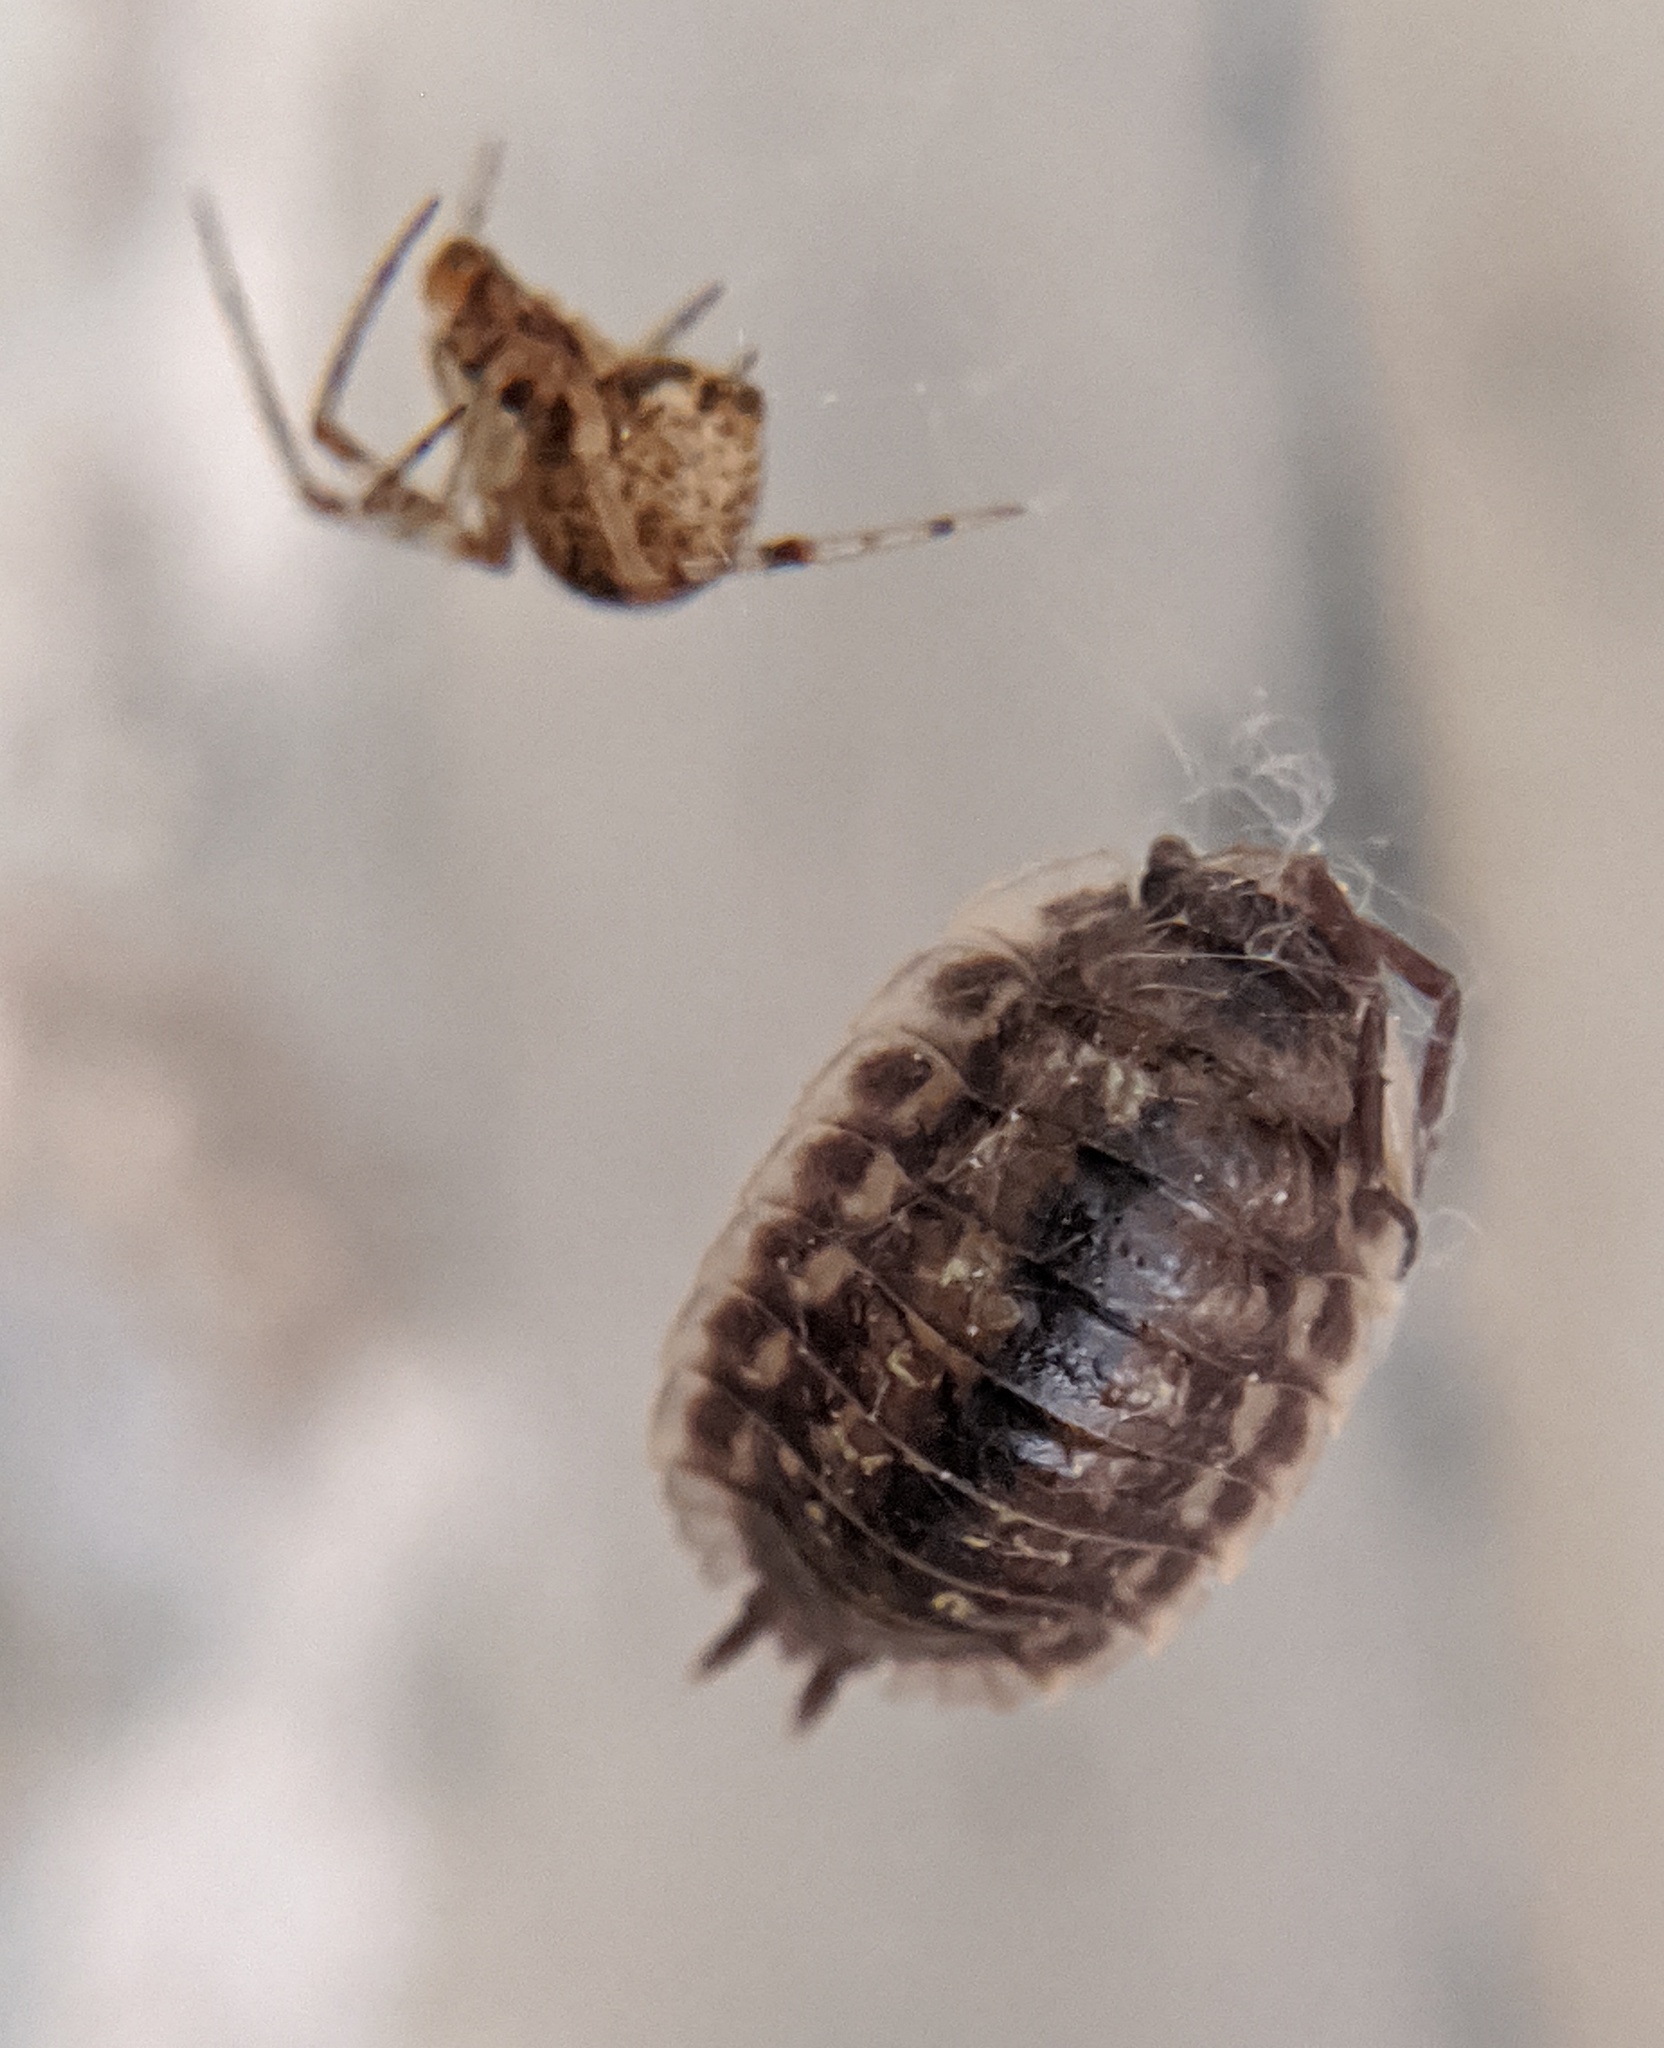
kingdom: Animalia
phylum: Arthropoda
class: Malacostraca
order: Isopoda
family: Oniscidae
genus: Oniscus
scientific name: Oniscus asellus
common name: Common shiny woodlouse
